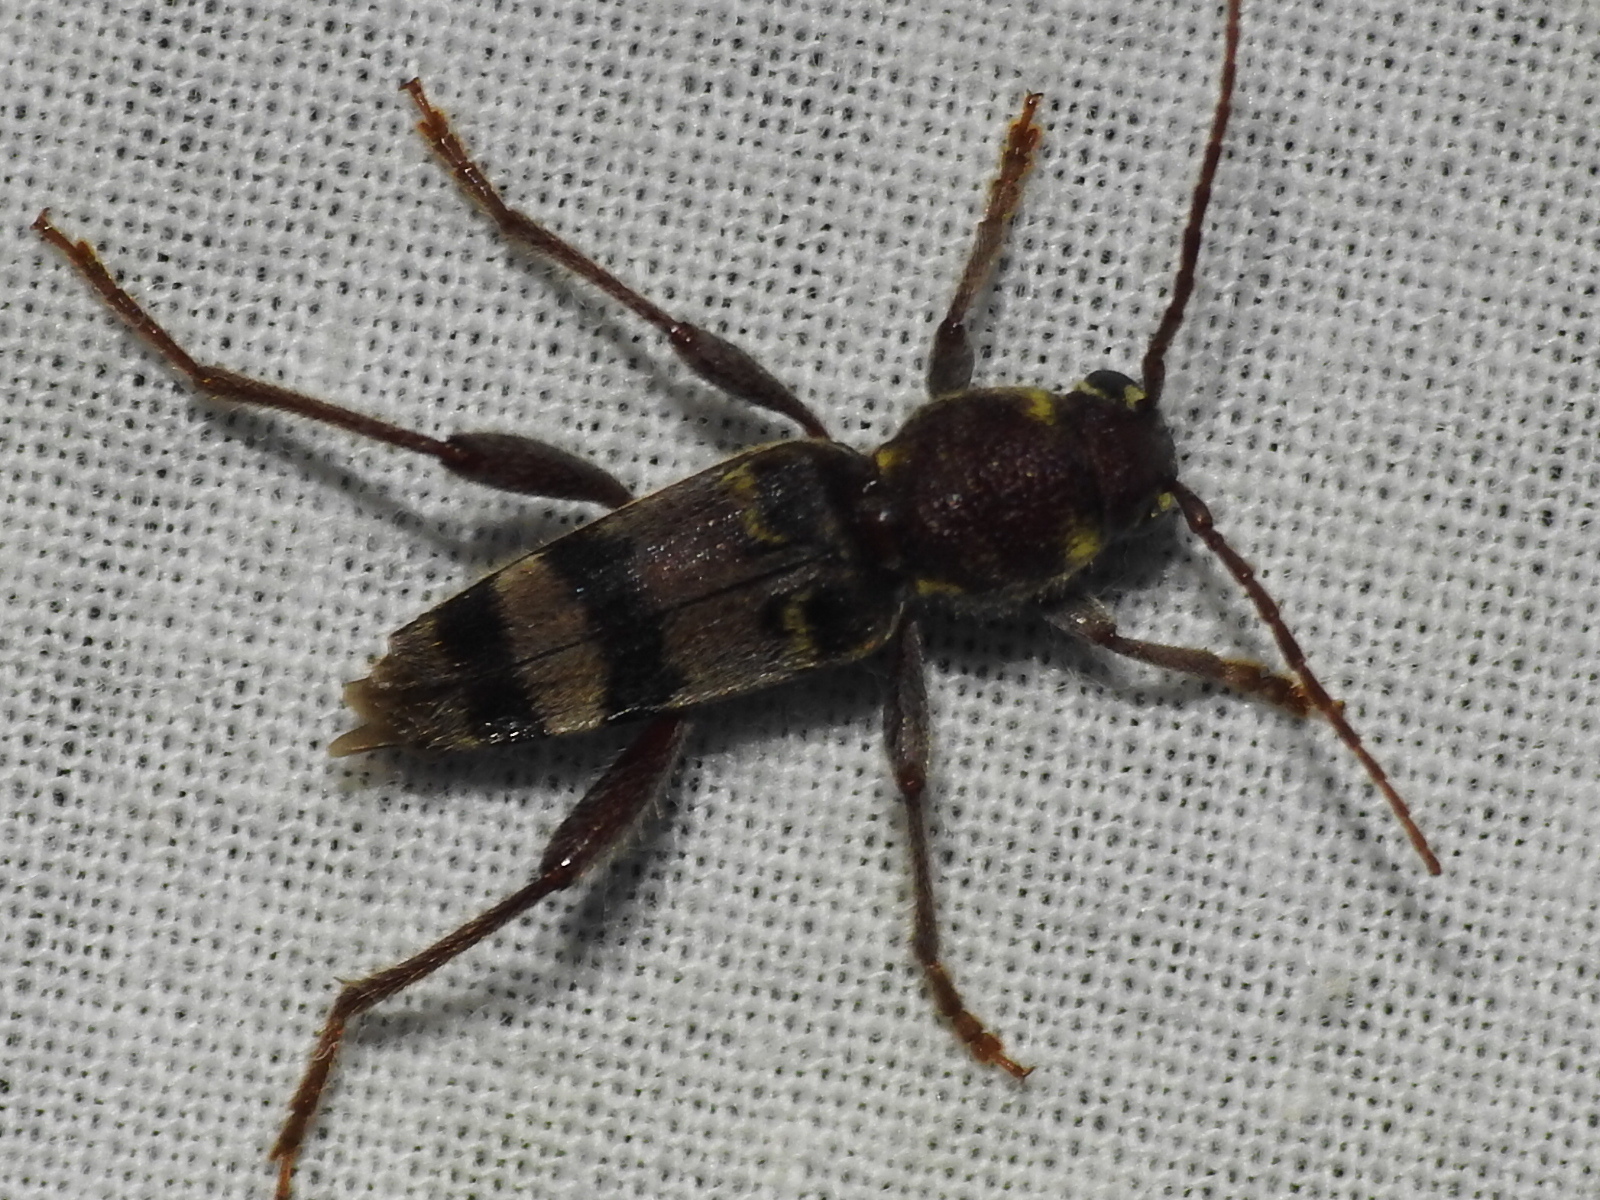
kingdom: Animalia
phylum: Arthropoda
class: Insecta
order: Coleoptera
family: Cerambycidae
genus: Xylotrechus
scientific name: Xylotrechus colonus
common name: Long-horned beetle
